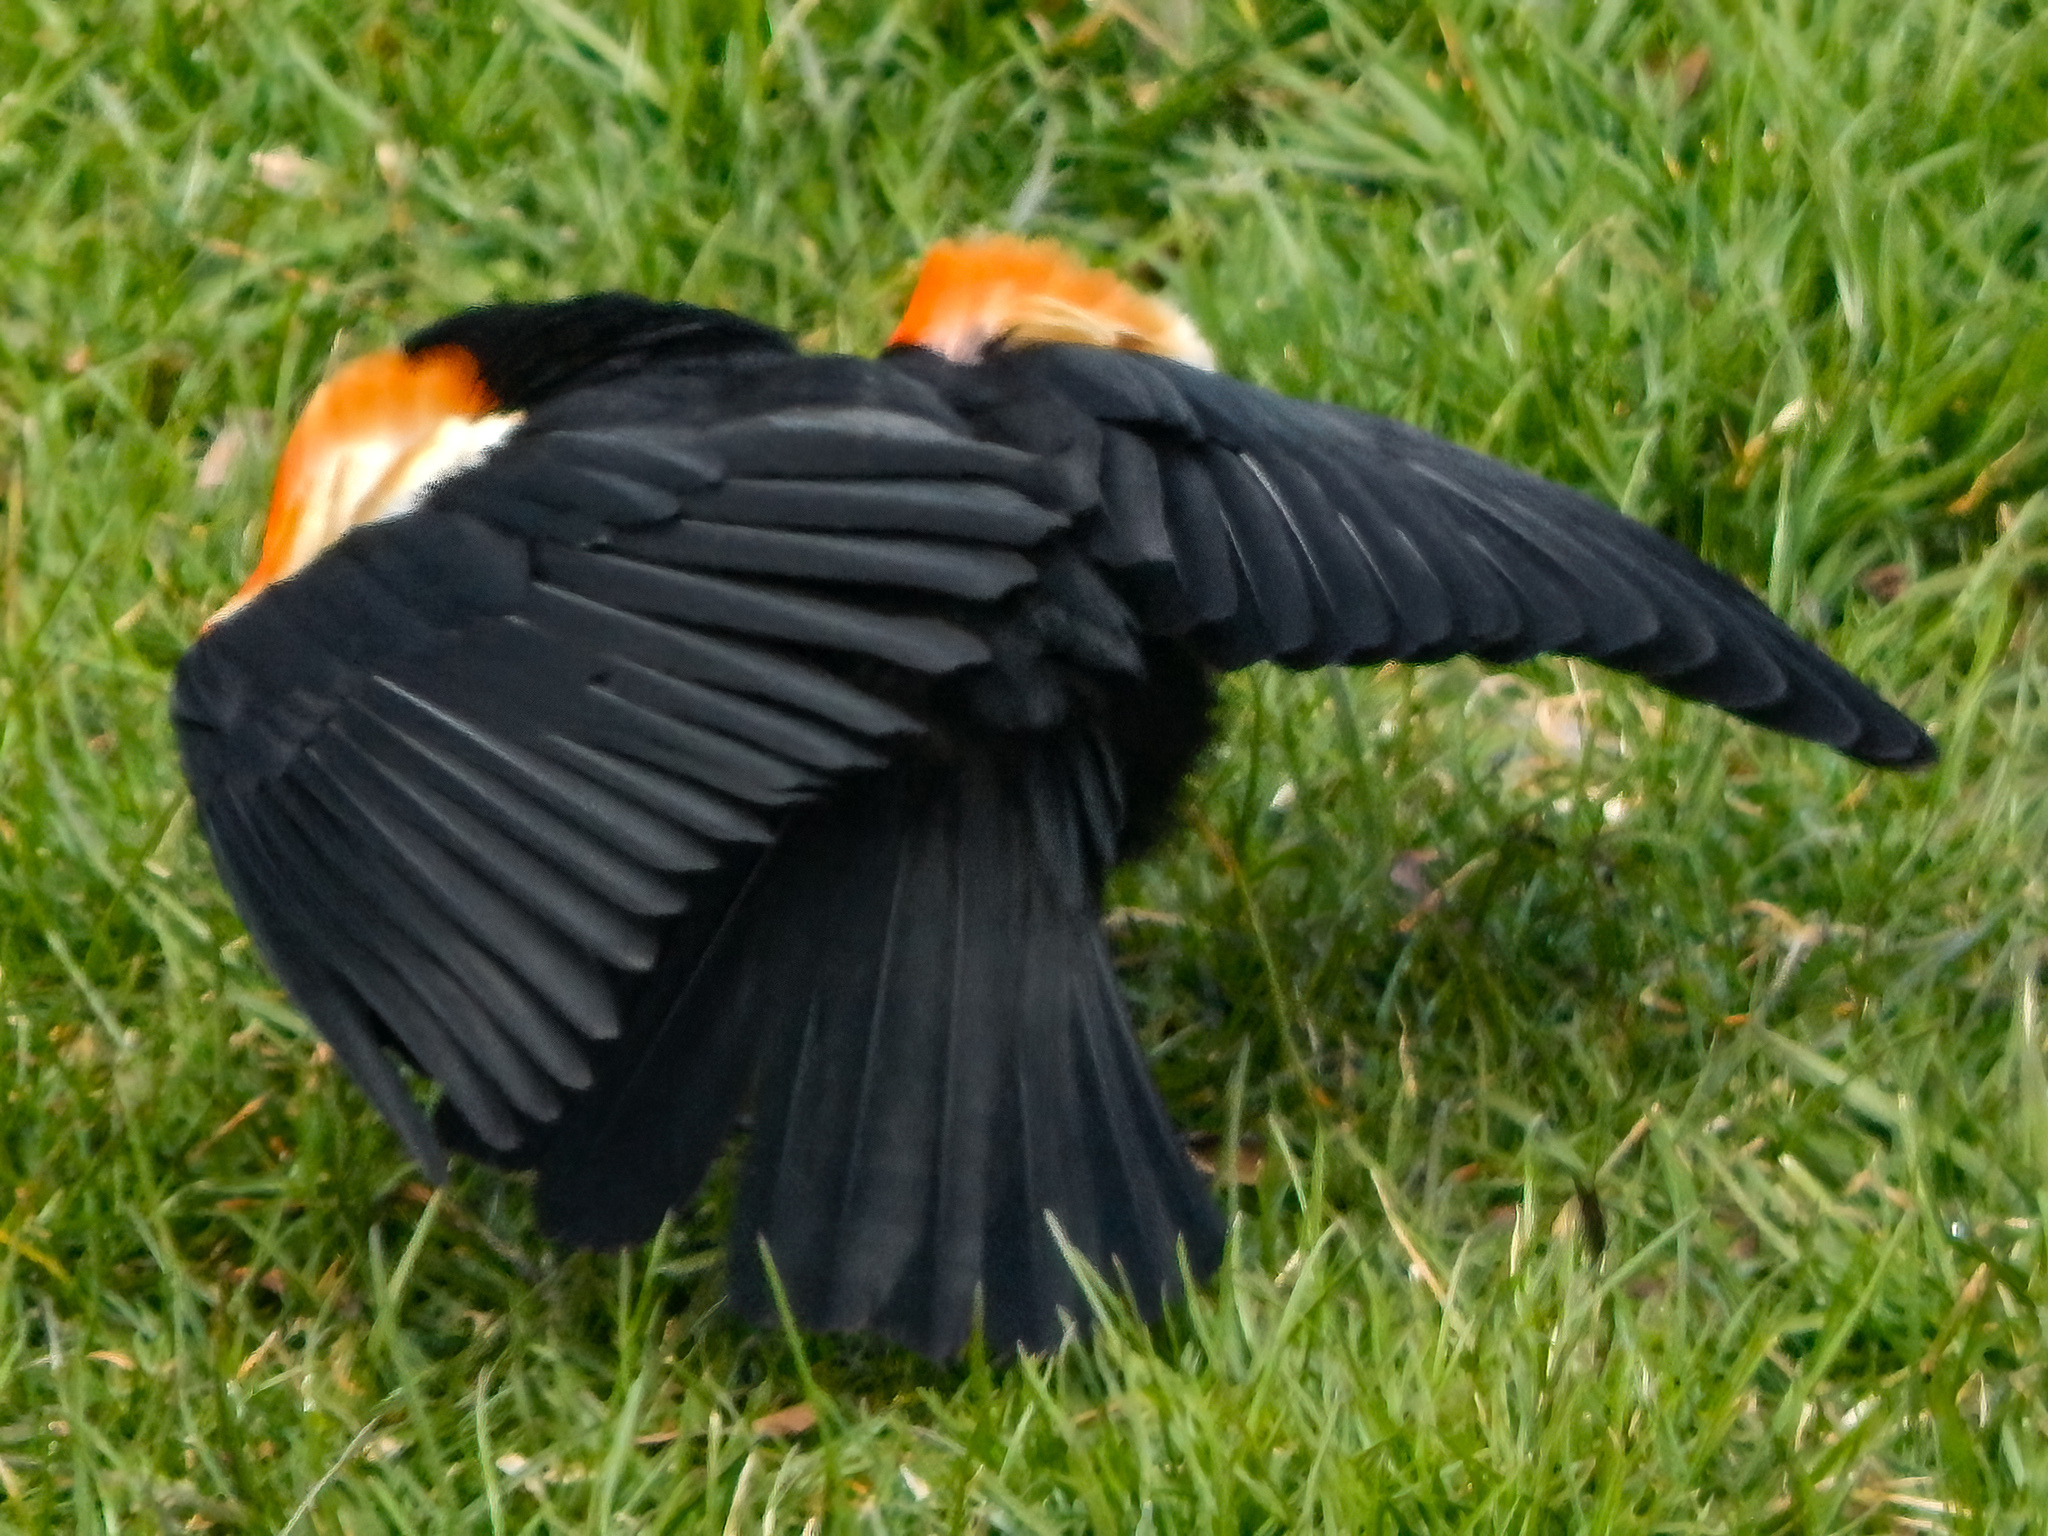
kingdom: Animalia
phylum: Chordata
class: Aves
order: Passeriformes
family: Icteridae
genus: Agelaius
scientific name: Agelaius phoeniceus
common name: Red-winged blackbird
